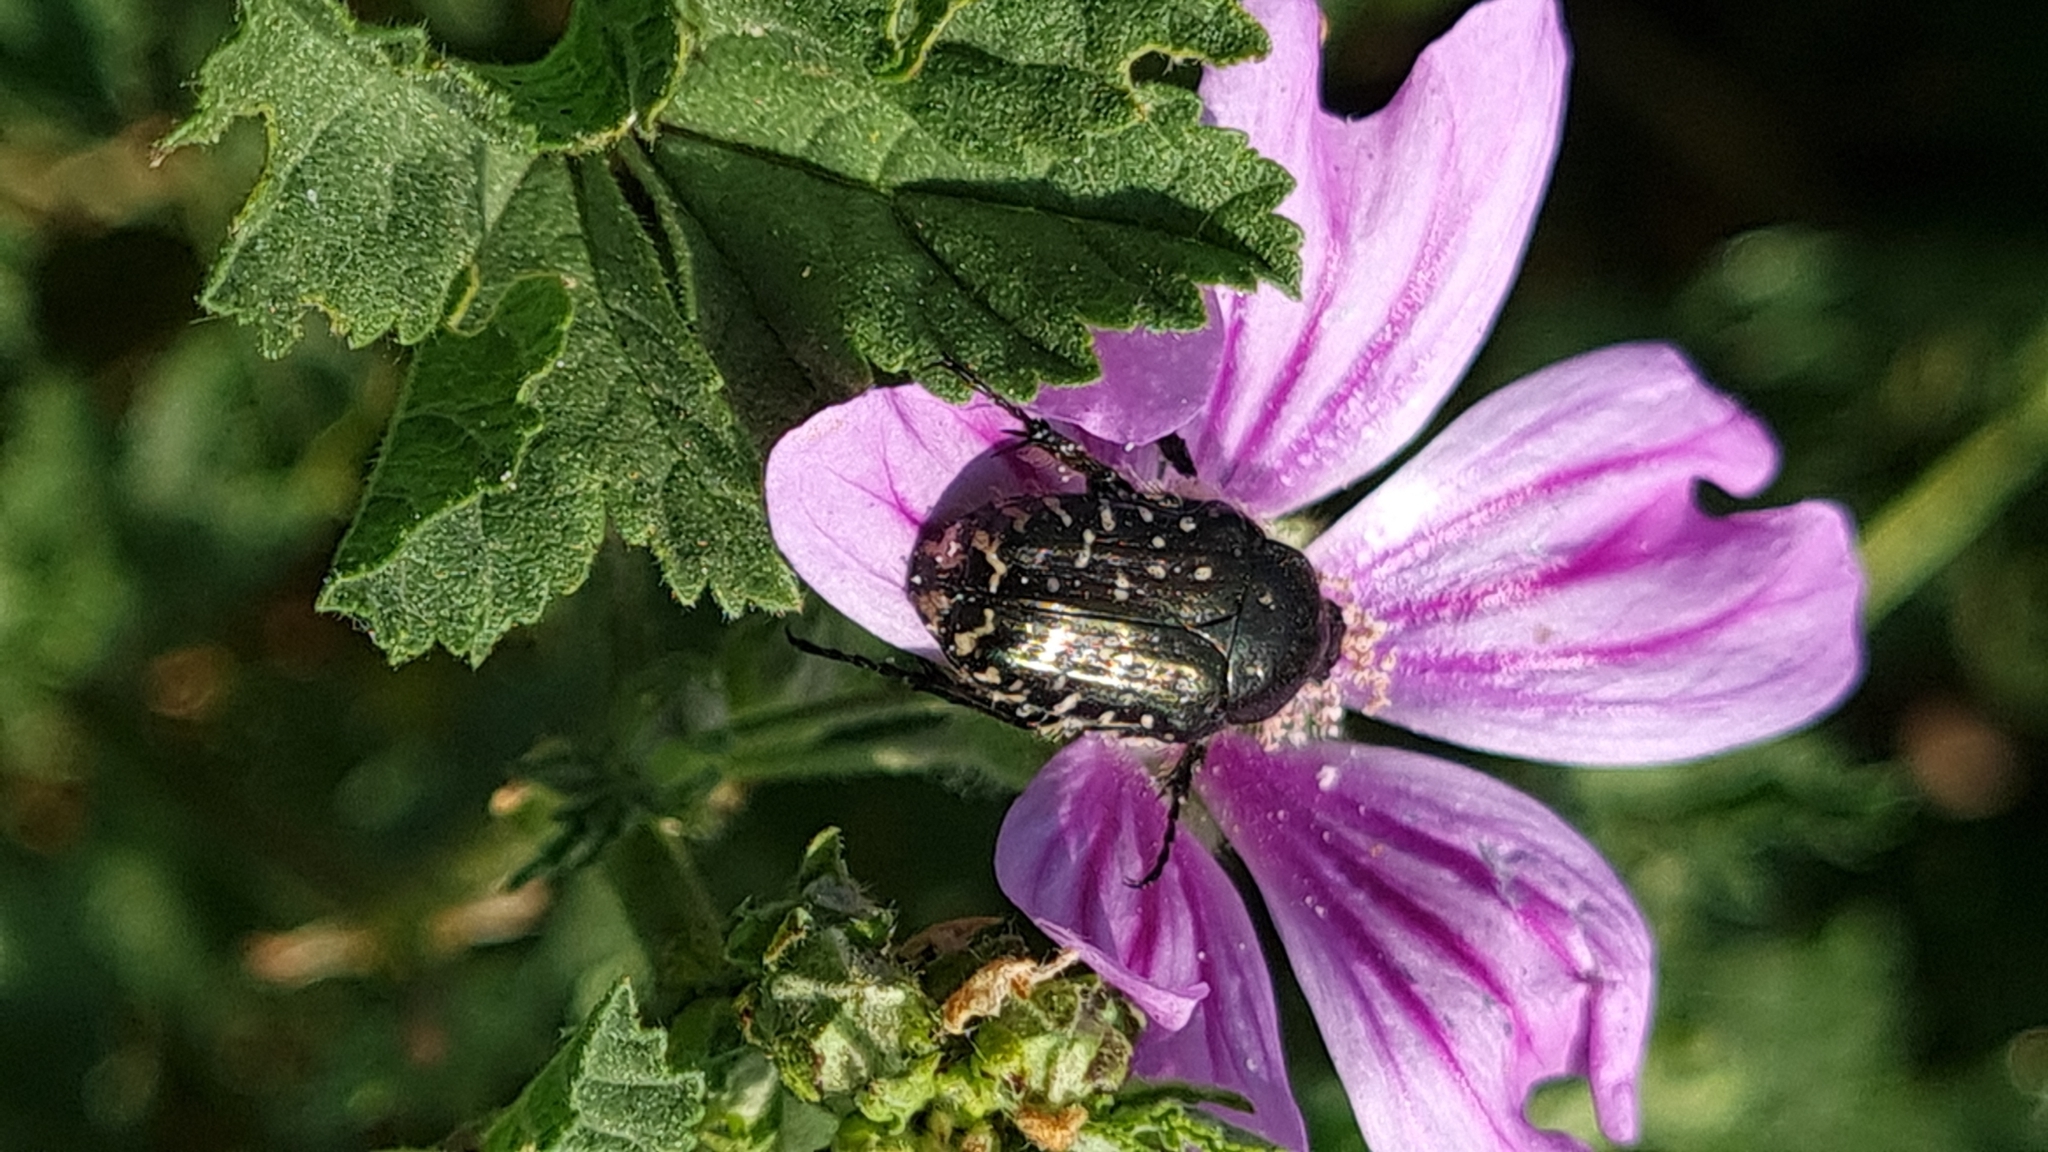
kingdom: Animalia
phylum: Arthropoda
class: Insecta
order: Coleoptera
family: Scarabaeidae
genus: Oxythyrea
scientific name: Oxythyrea funesta
